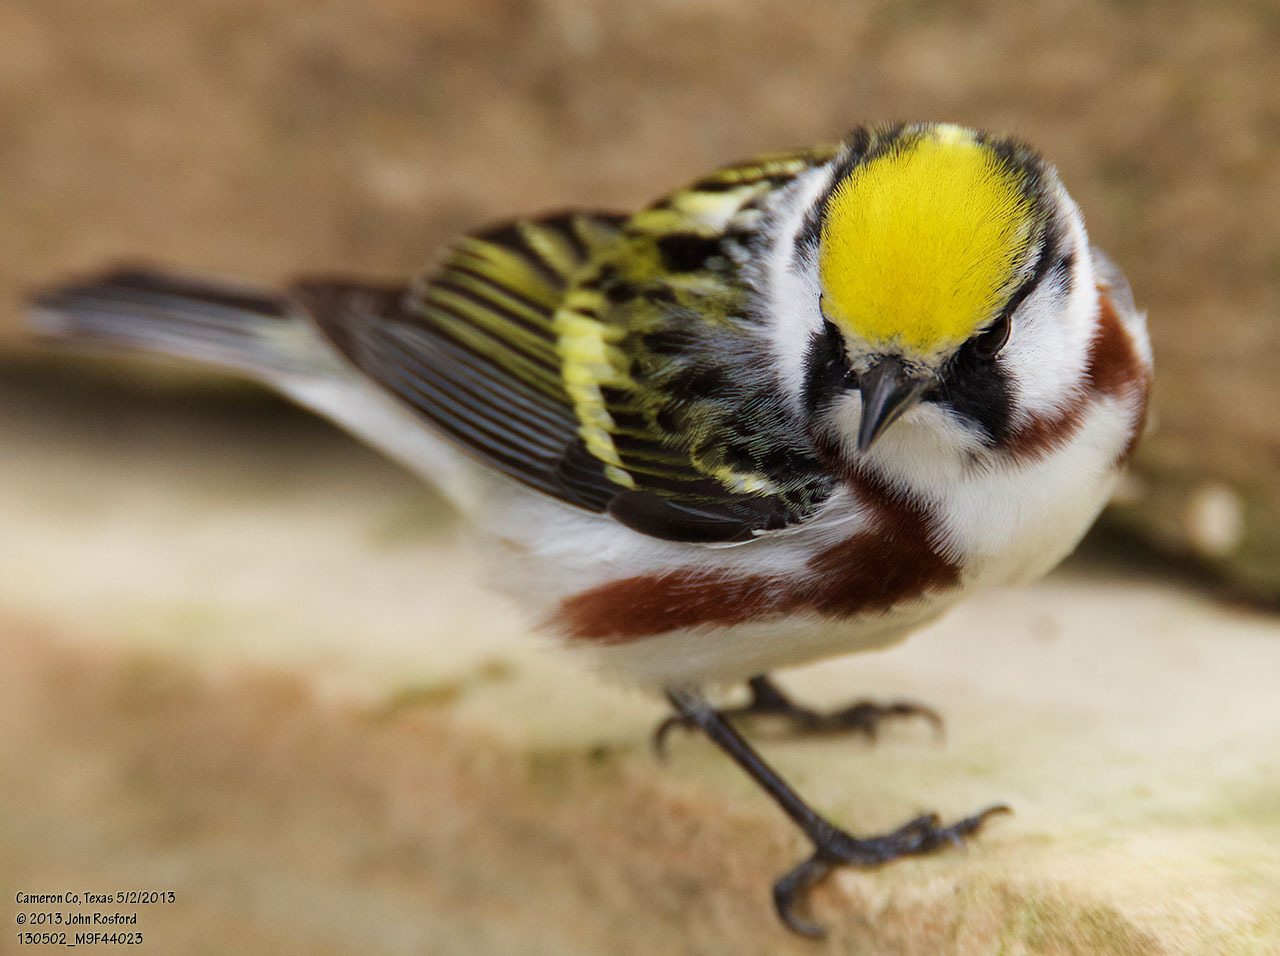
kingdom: Animalia
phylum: Chordata
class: Aves
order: Passeriformes
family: Parulidae
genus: Setophaga
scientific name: Setophaga pensylvanica
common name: Chestnut-sided warbler
